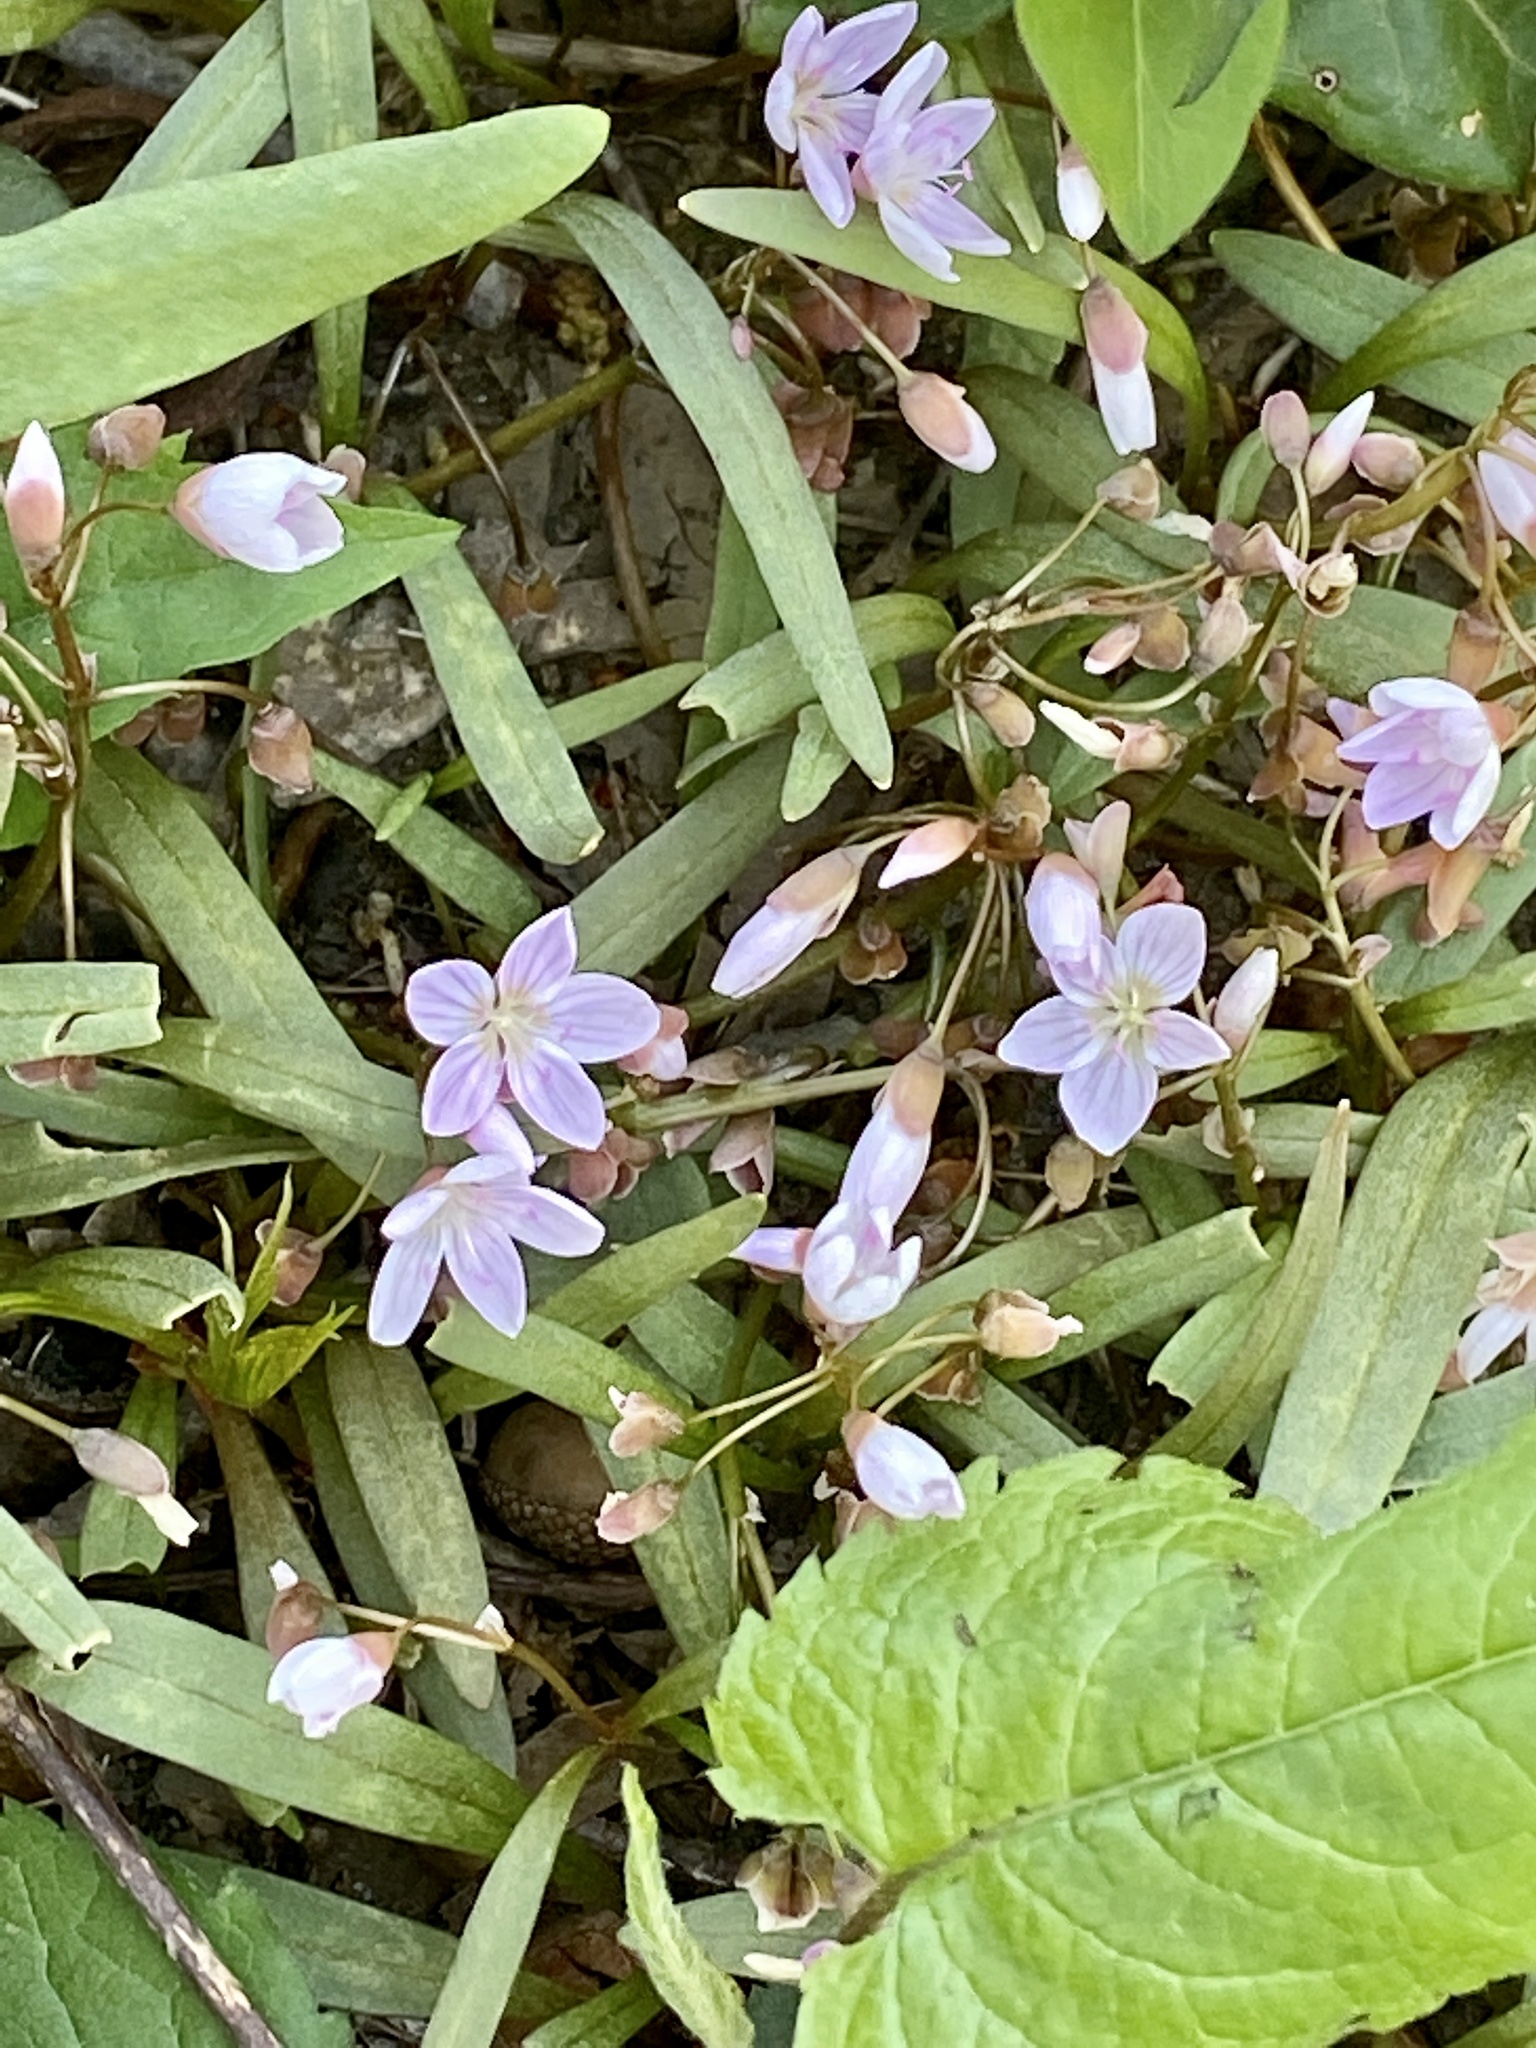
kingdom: Plantae
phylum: Tracheophyta
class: Magnoliopsida
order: Caryophyllales
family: Montiaceae
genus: Claytonia
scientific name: Claytonia virginica
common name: Virginia springbeauty
